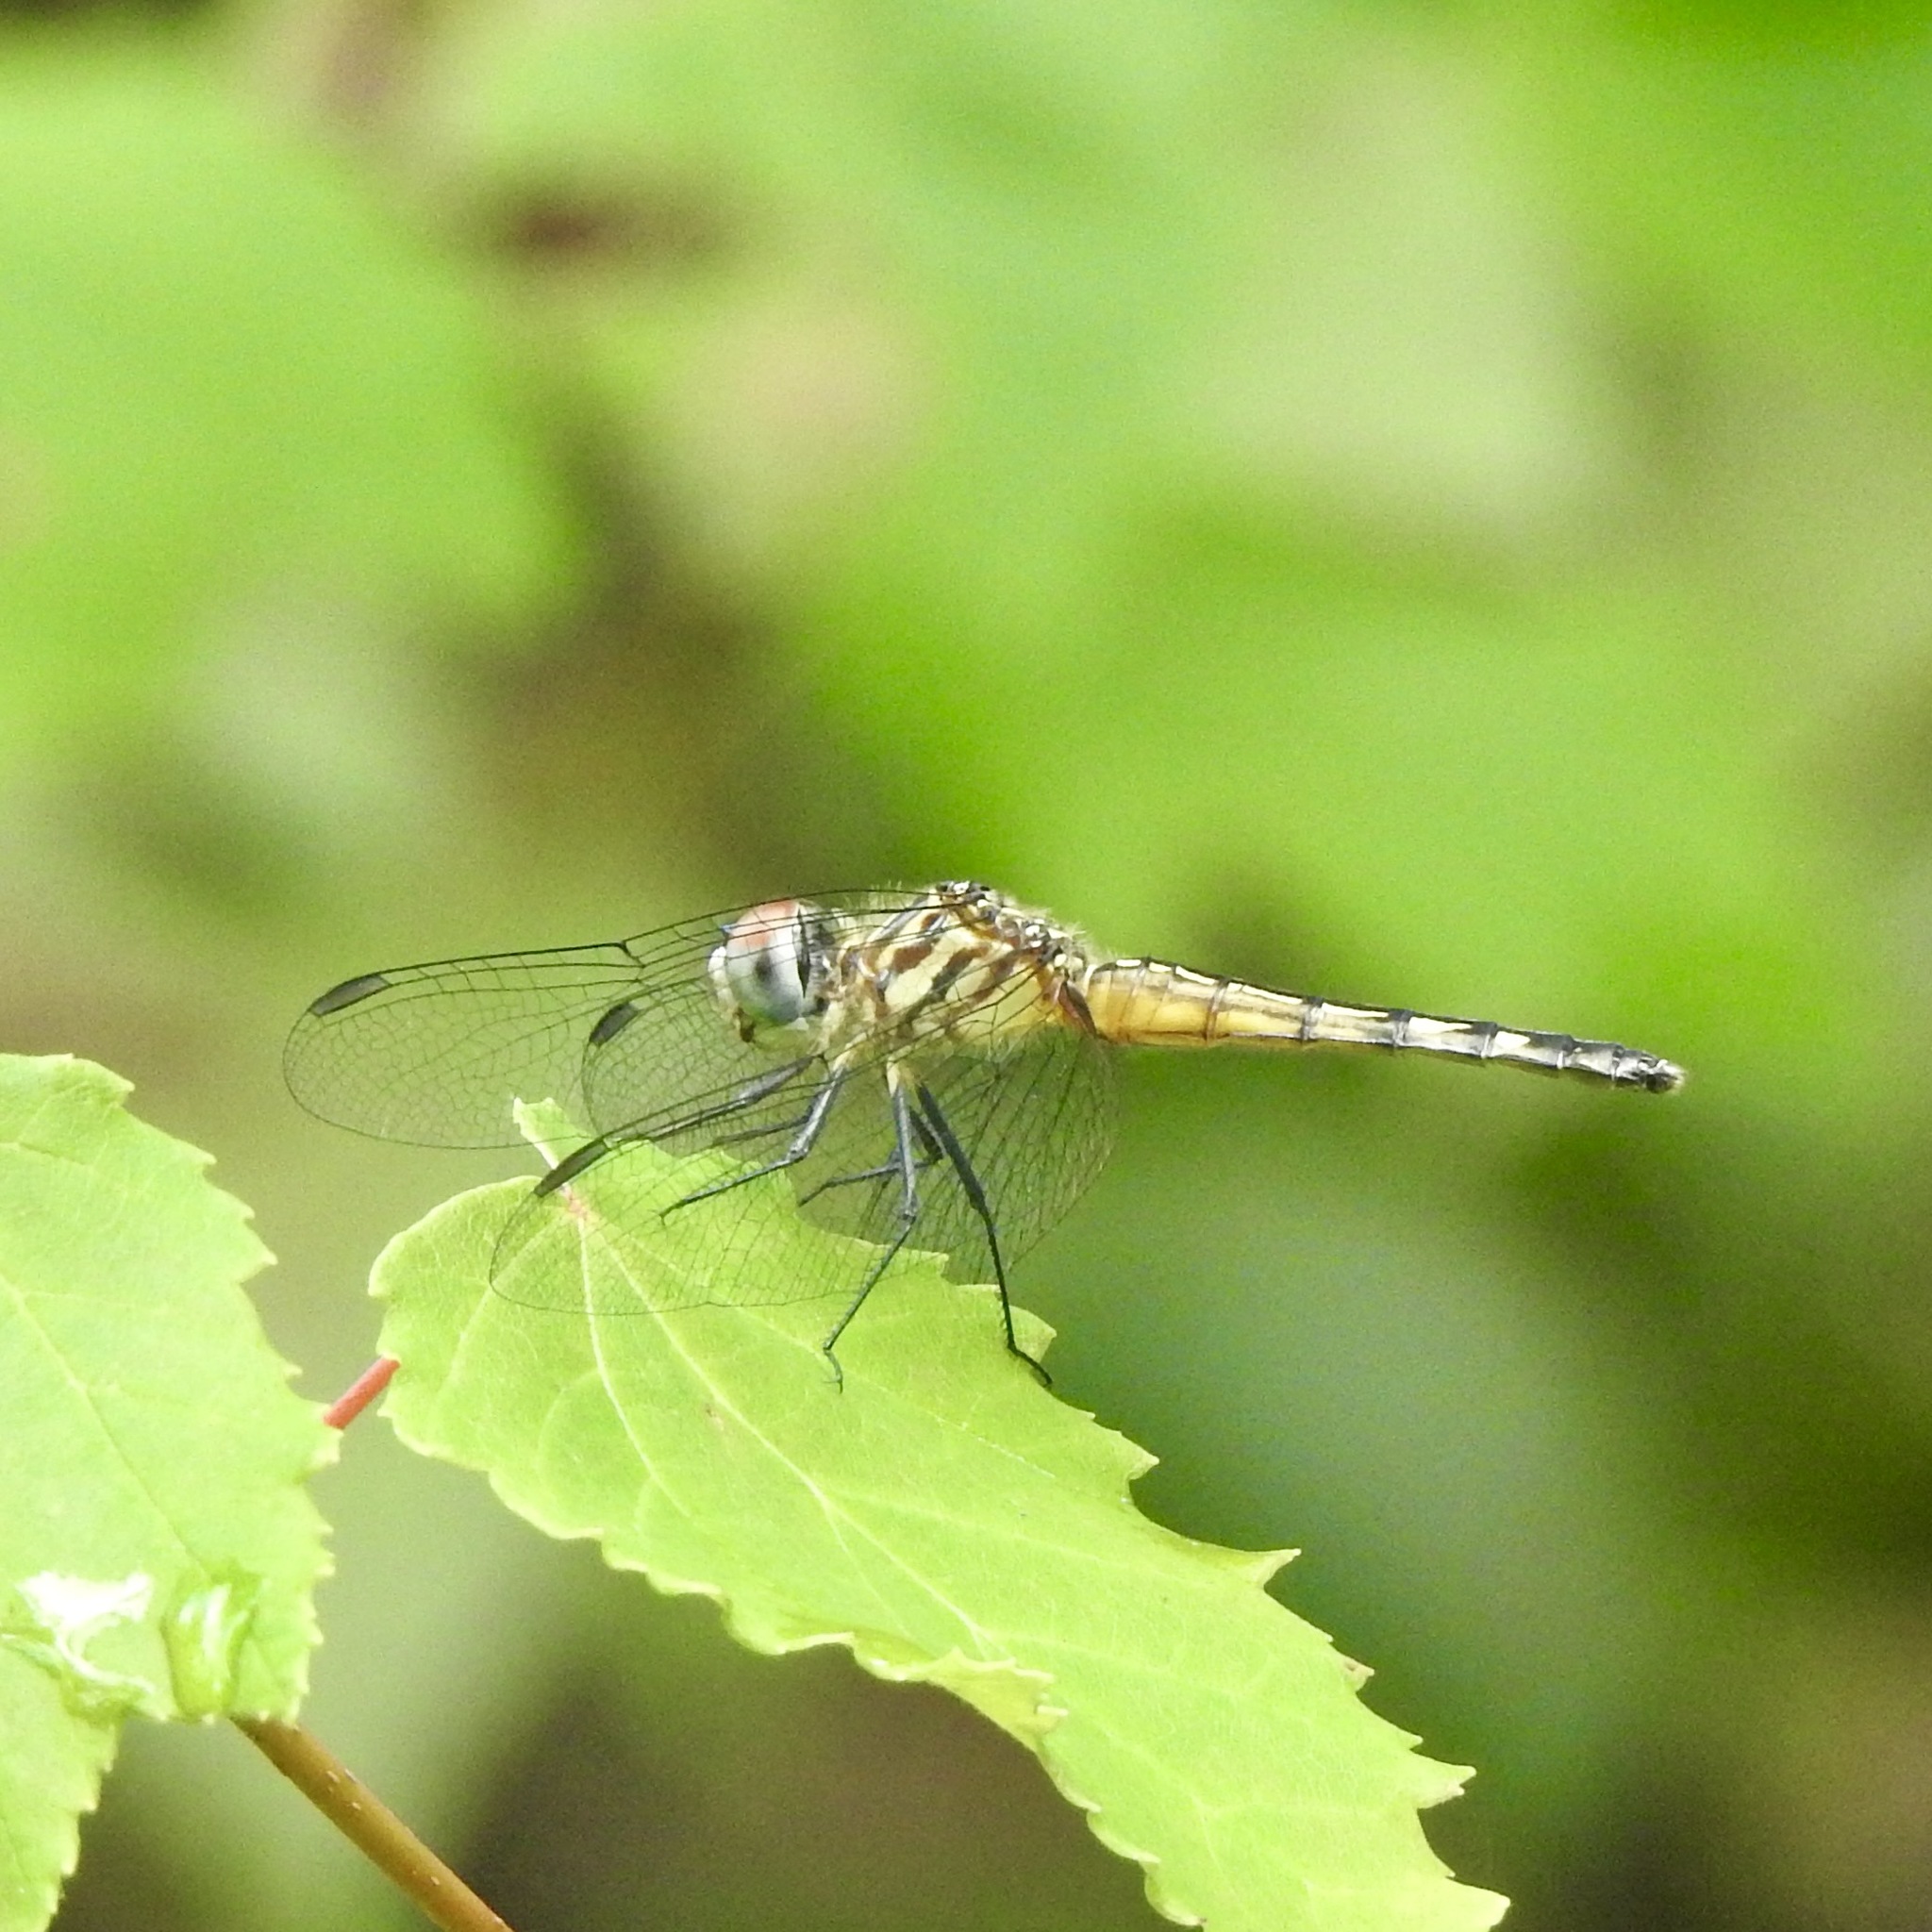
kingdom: Animalia
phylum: Arthropoda
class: Insecta
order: Odonata
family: Libellulidae
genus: Pachydiplax
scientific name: Pachydiplax longipennis
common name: Blue dasher
